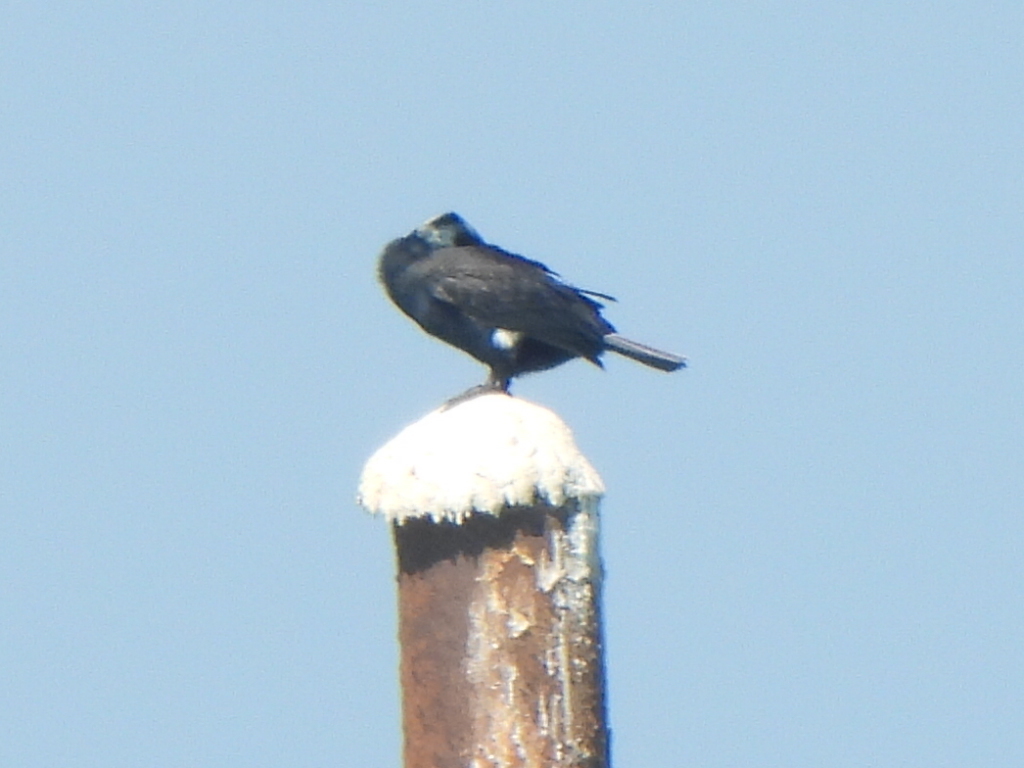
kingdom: Animalia
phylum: Chordata
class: Aves
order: Suliformes
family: Phalacrocoracidae
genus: Phalacrocorax
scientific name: Phalacrocorax carbo
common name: Great cormorant
